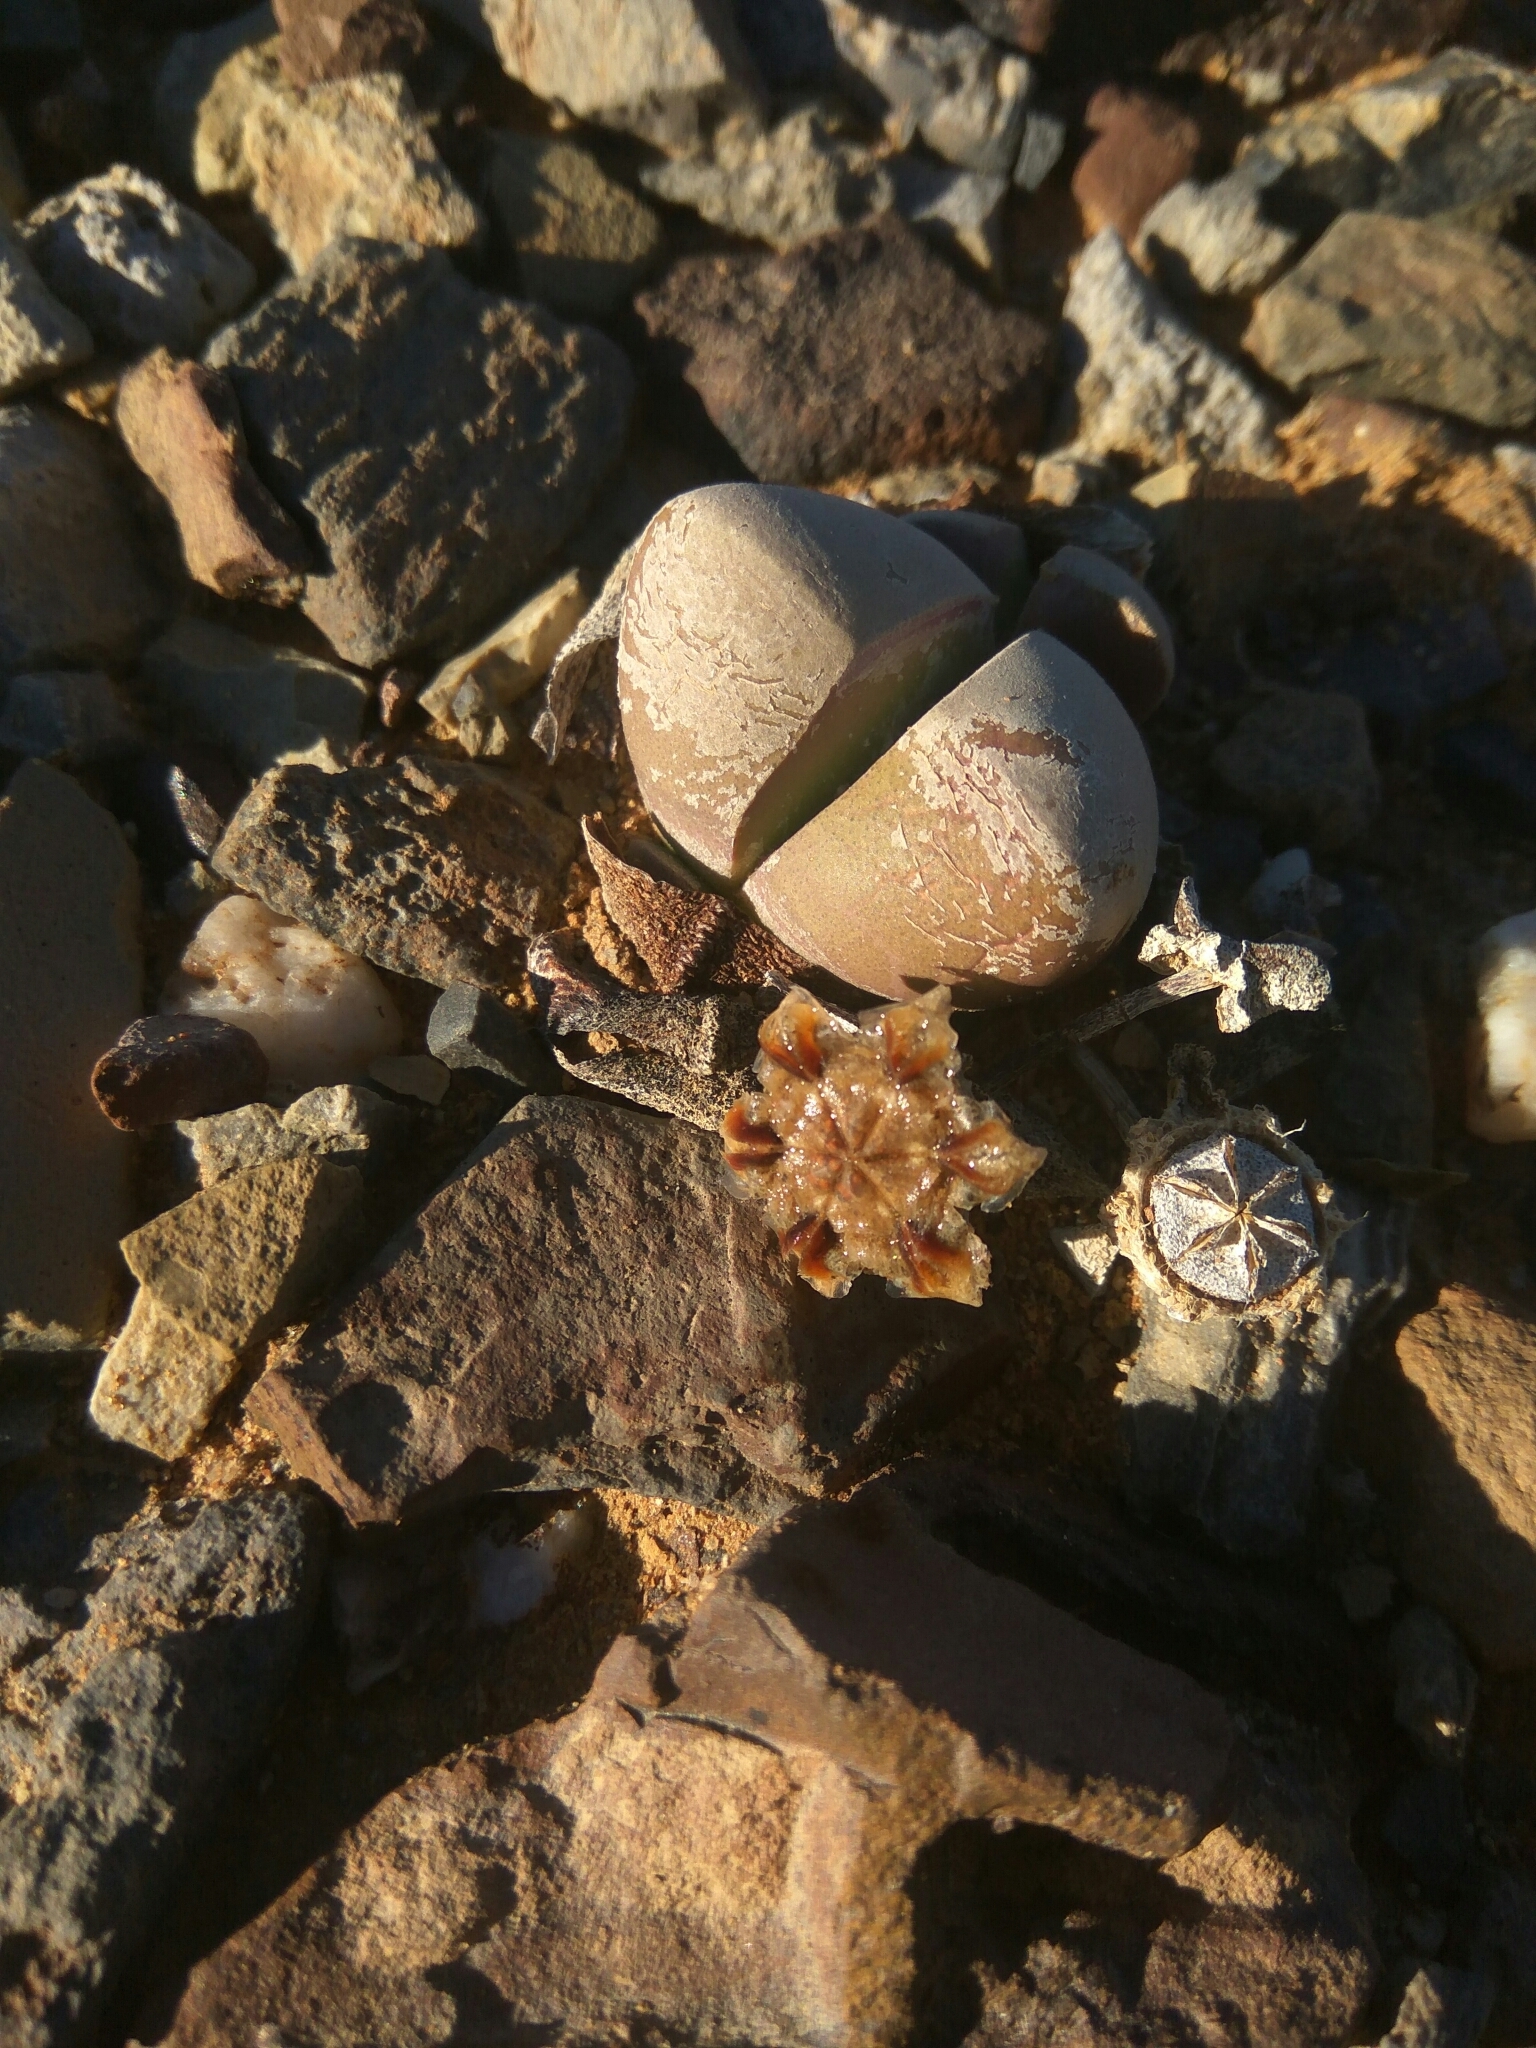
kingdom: Plantae
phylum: Tracheophyta
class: Magnoliopsida
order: Caryophyllales
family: Aizoaceae
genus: Didymaotus
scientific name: Didymaotus lapidiformis
